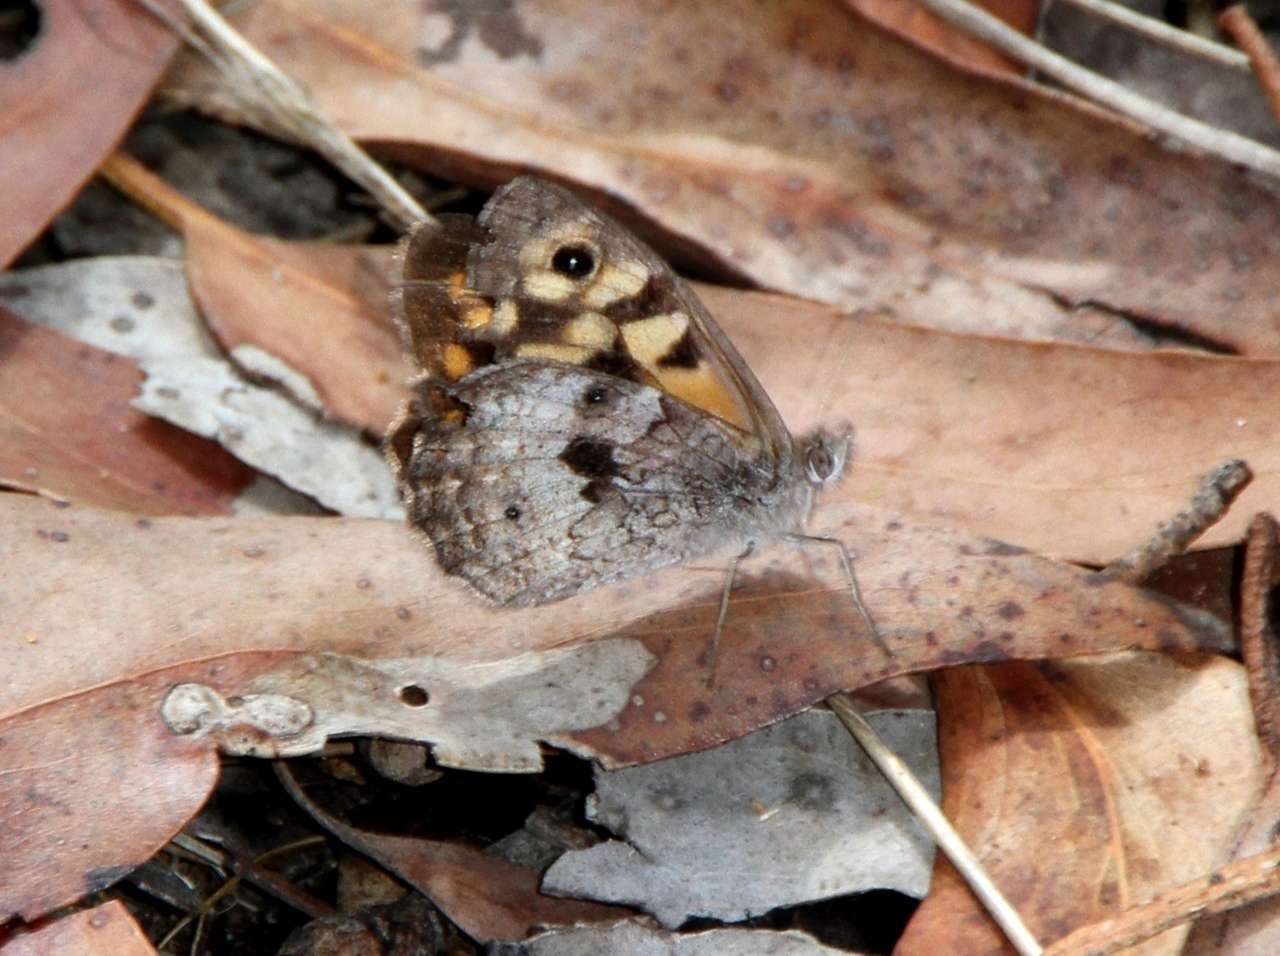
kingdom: Animalia
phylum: Arthropoda
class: Insecta
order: Lepidoptera
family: Nymphalidae
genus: Geitoneura
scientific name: Geitoneura klugii
